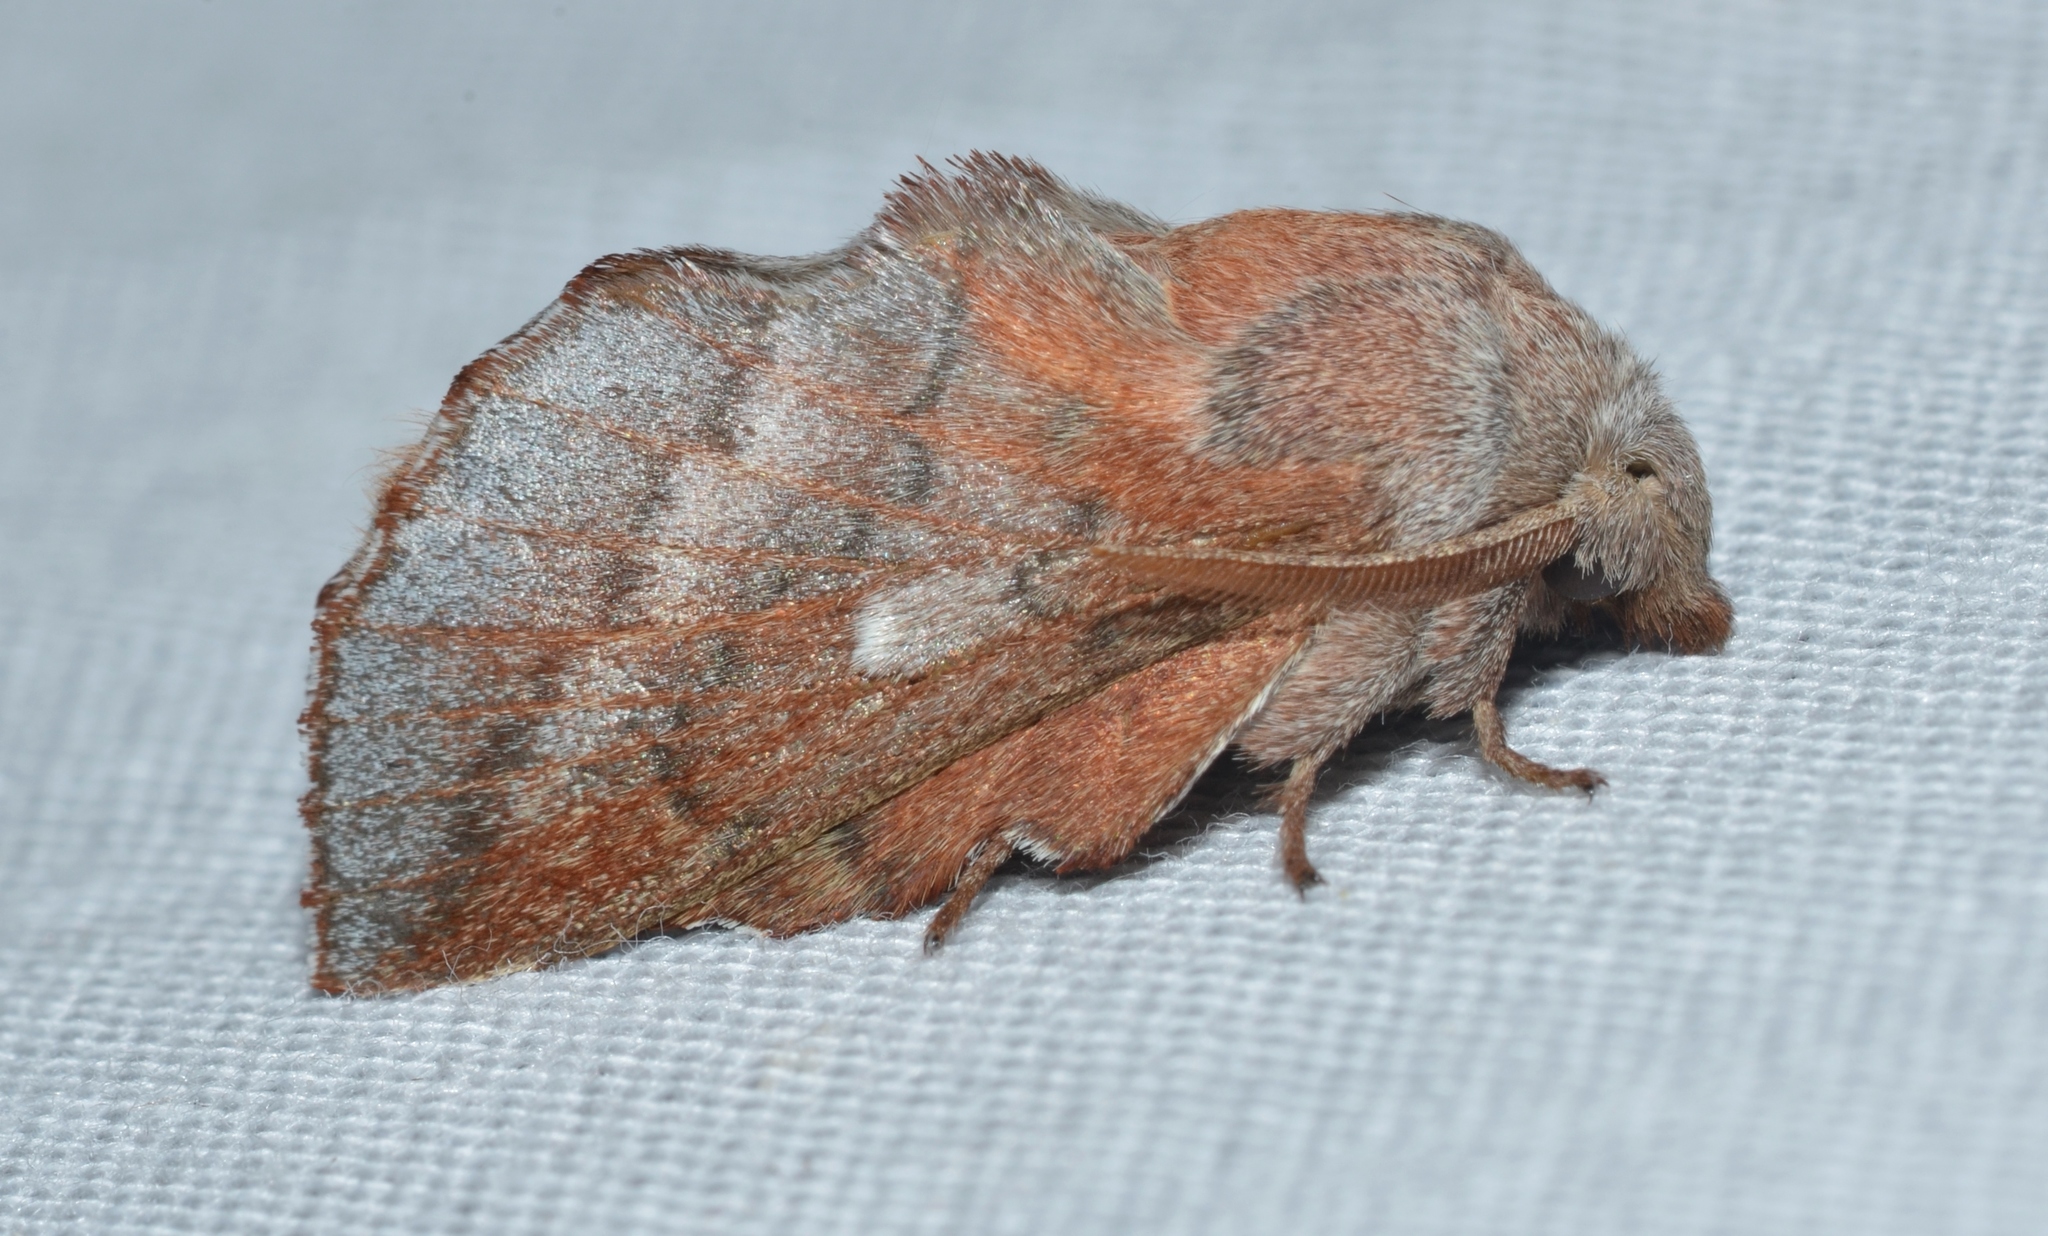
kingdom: Animalia
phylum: Arthropoda
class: Insecta
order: Lepidoptera
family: Lasiocampidae
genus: Phyllodesma
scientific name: Phyllodesma americana
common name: American lappet moth
